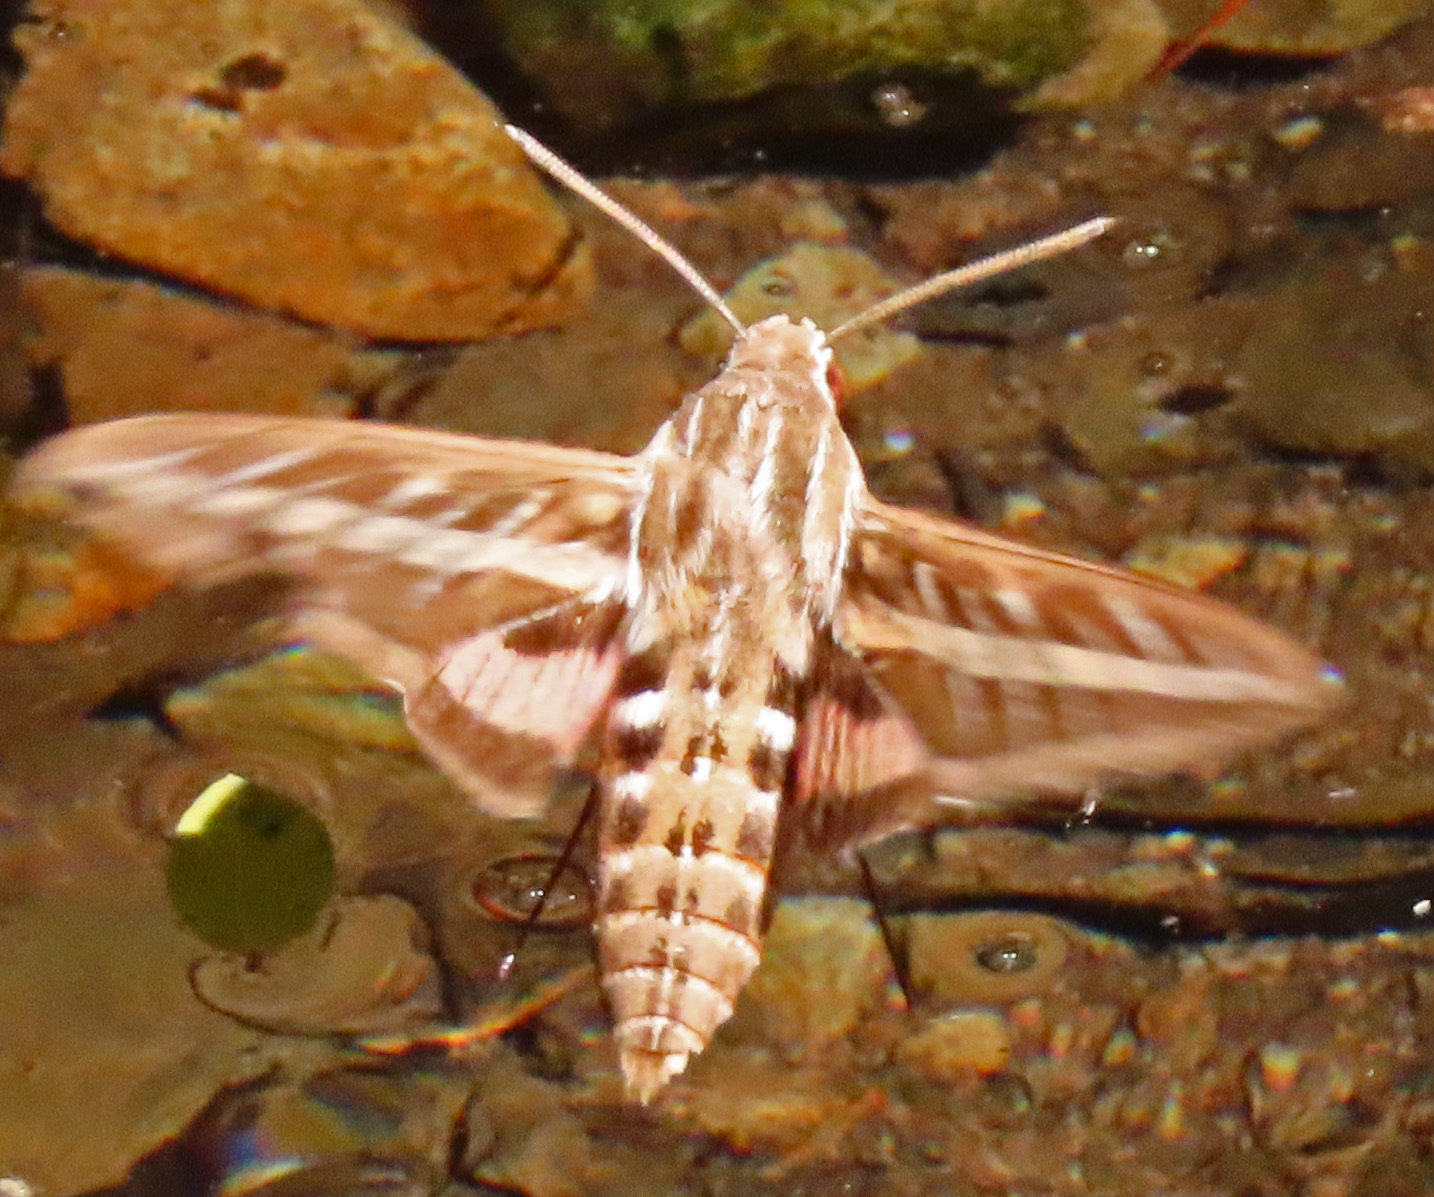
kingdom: Animalia
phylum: Arthropoda
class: Insecta
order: Lepidoptera
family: Sphingidae
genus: Hyles
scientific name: Hyles lineata
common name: White-lined sphinx
